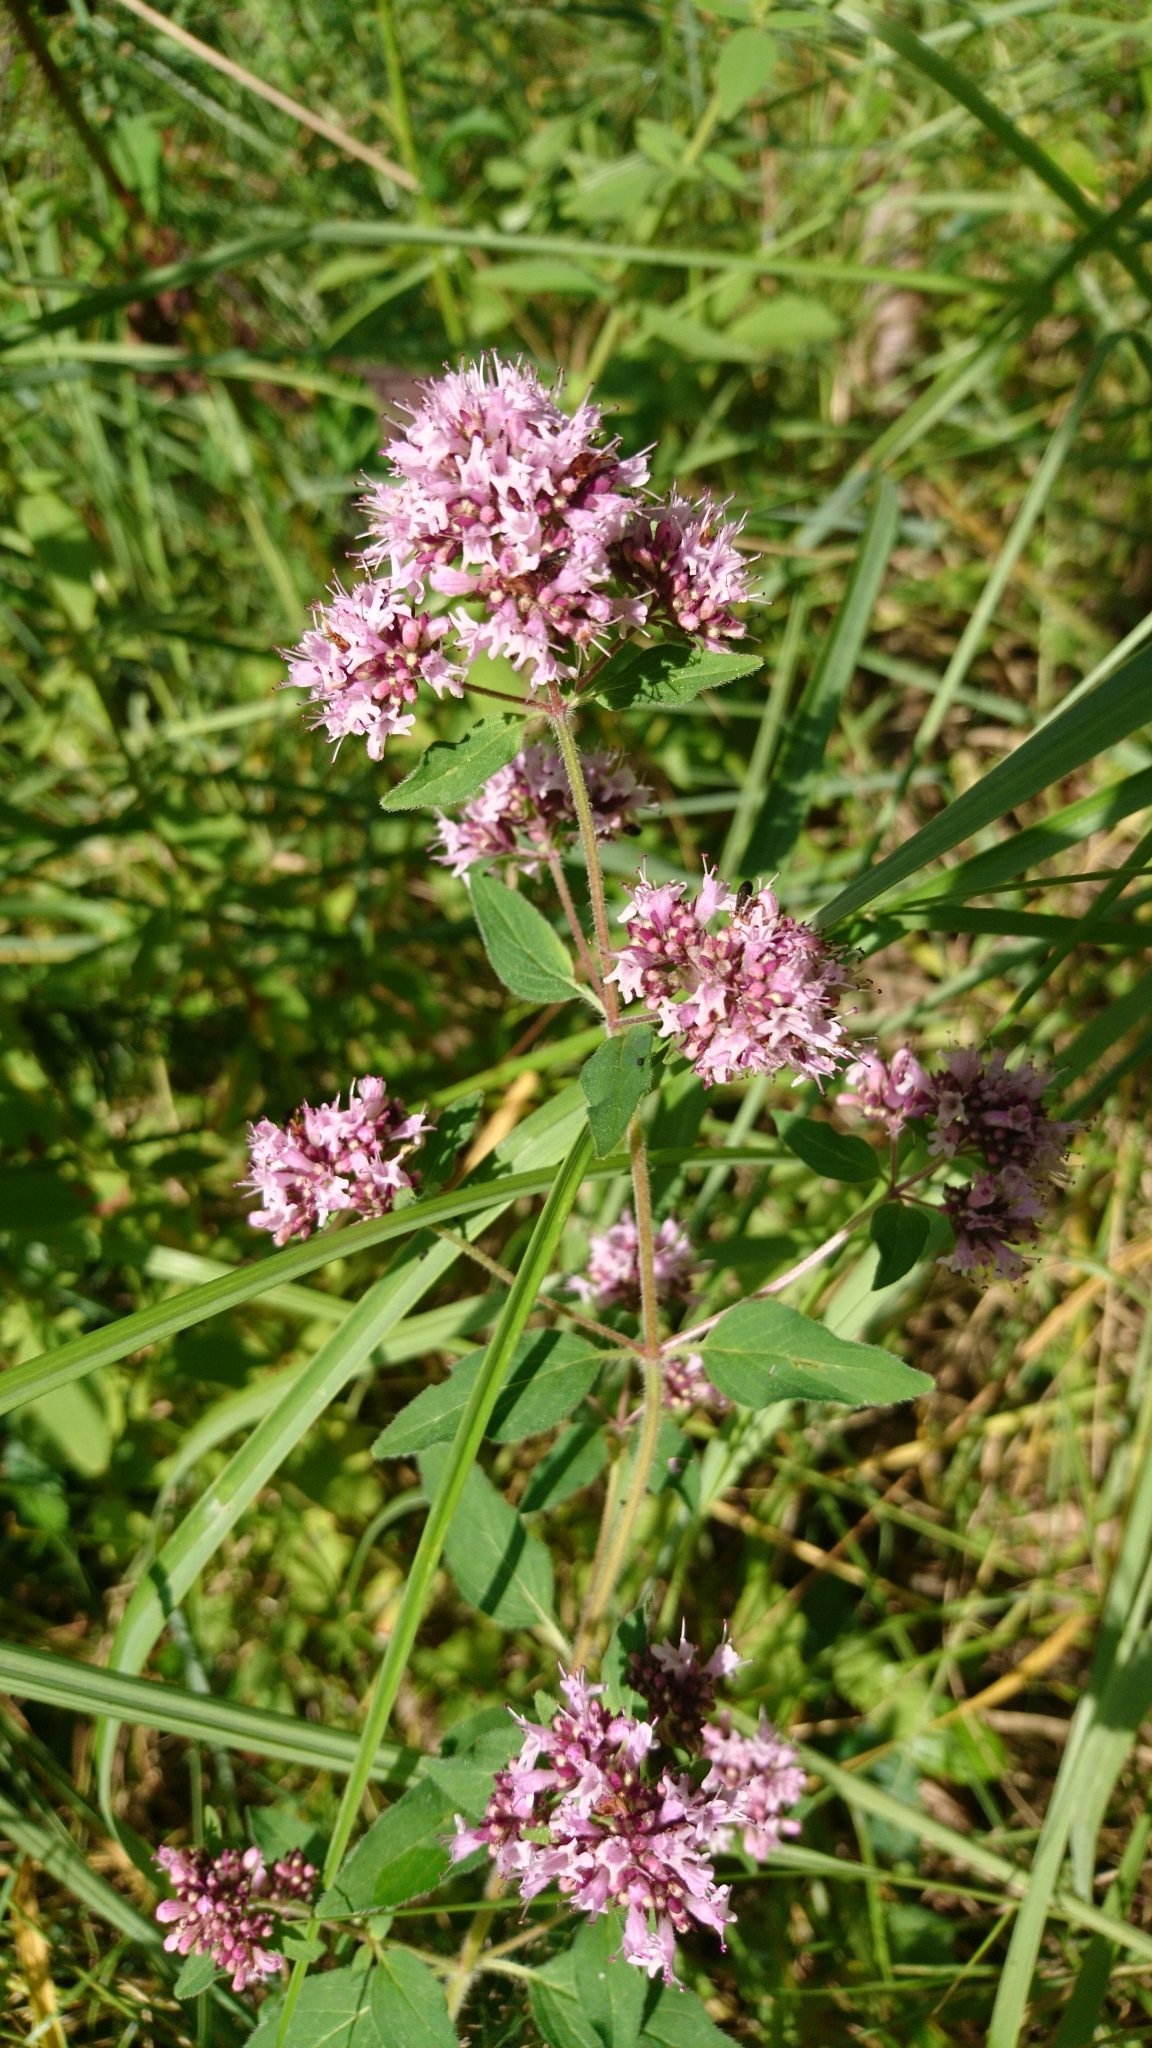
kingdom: Plantae
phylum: Tracheophyta
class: Magnoliopsida
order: Lamiales
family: Lamiaceae
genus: Origanum
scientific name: Origanum vulgare
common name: Wild marjoram
